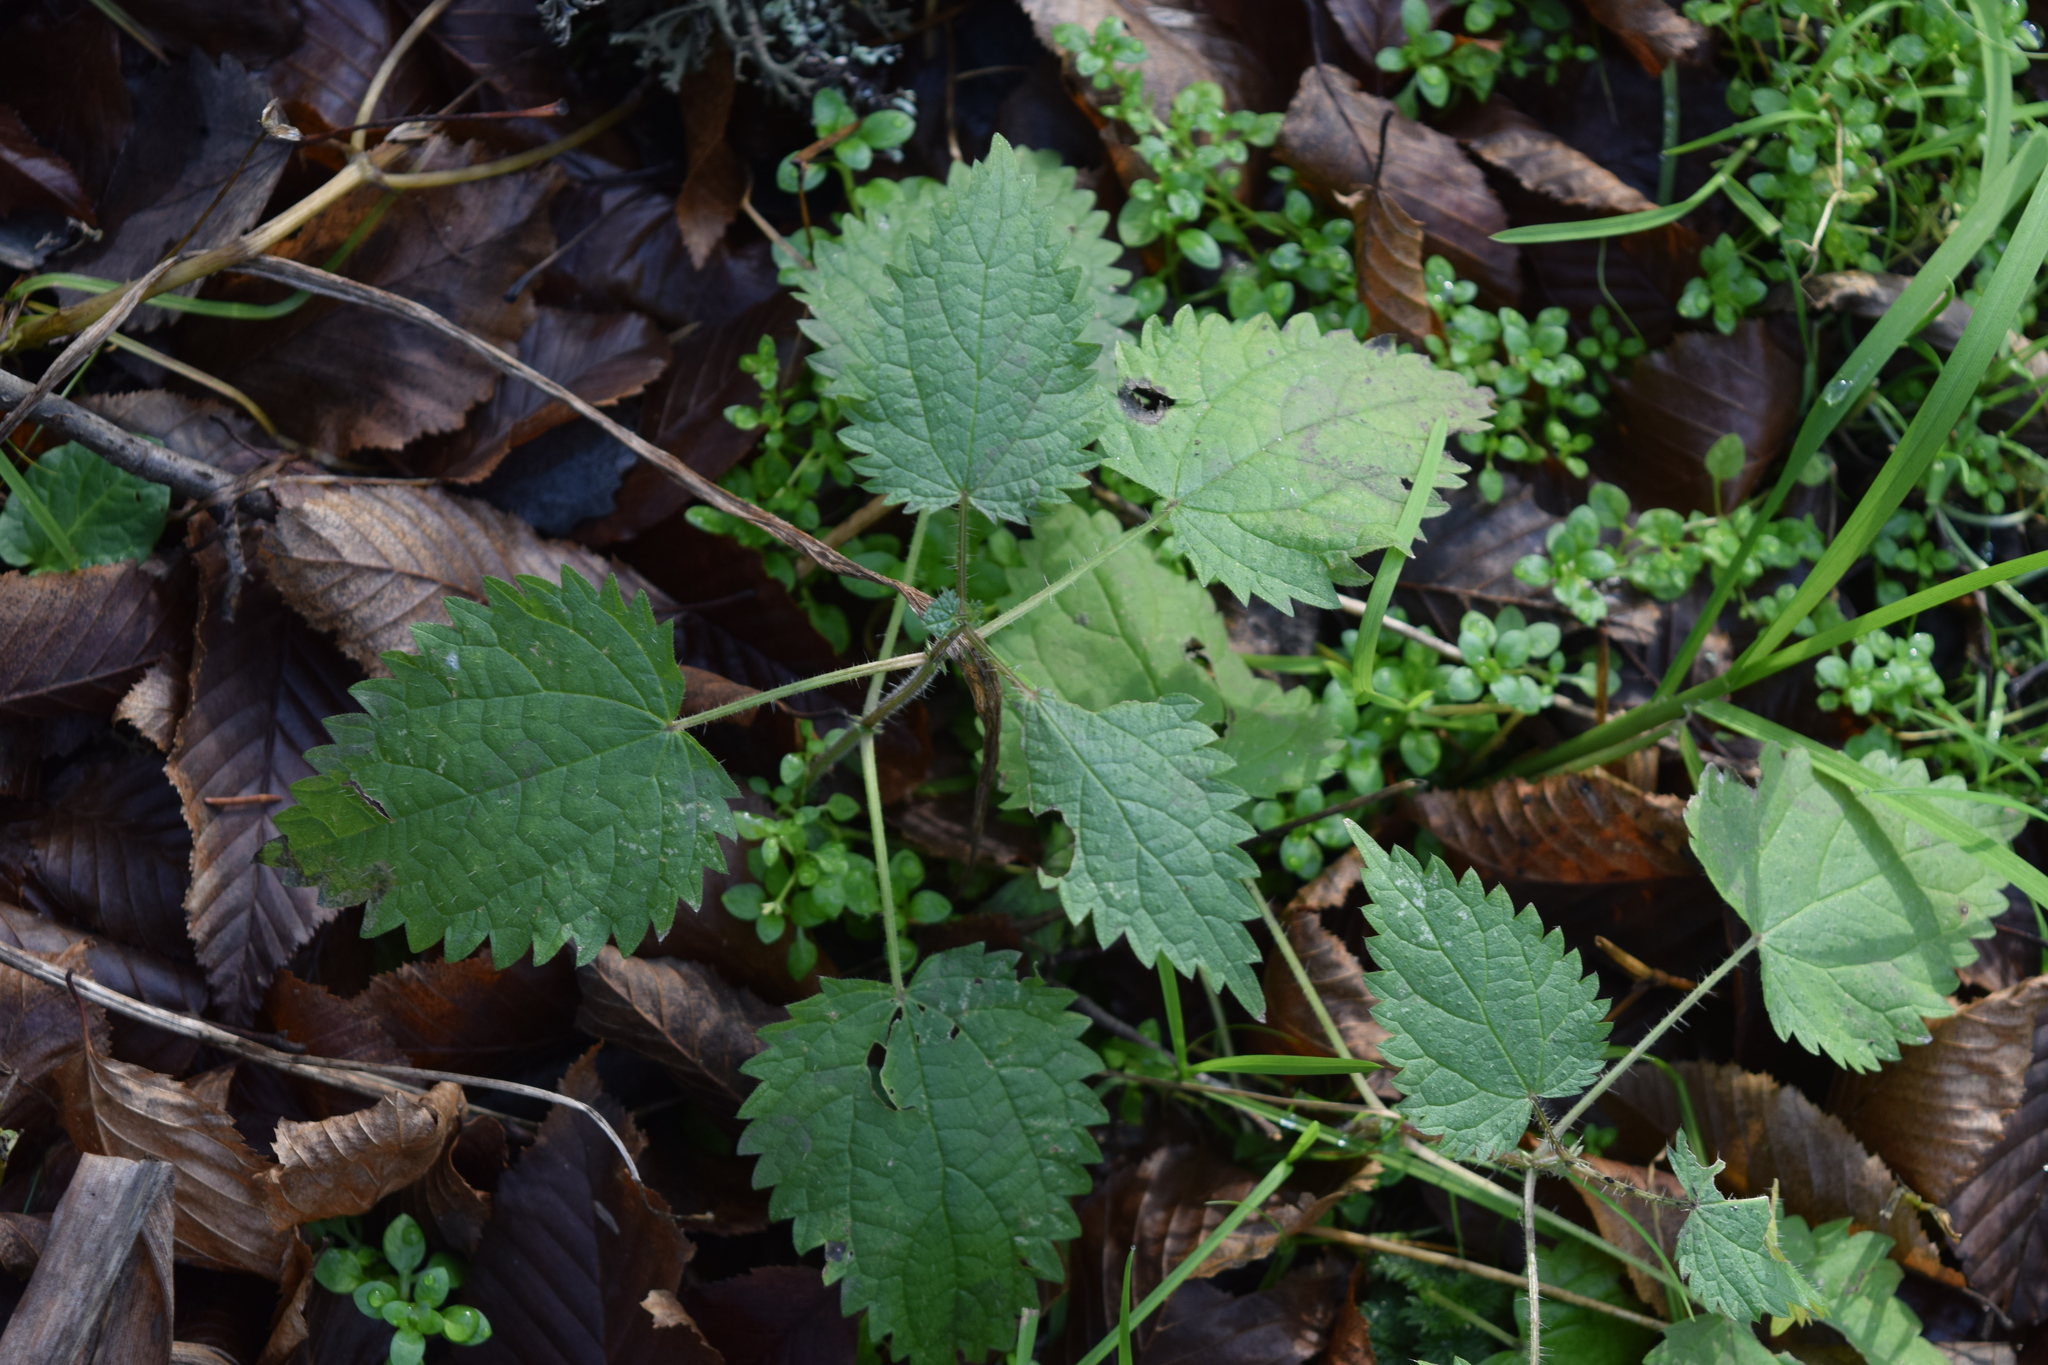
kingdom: Plantae
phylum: Tracheophyta
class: Magnoliopsida
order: Rosales
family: Urticaceae
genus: Urtica
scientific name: Urtica dioica
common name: Common nettle
